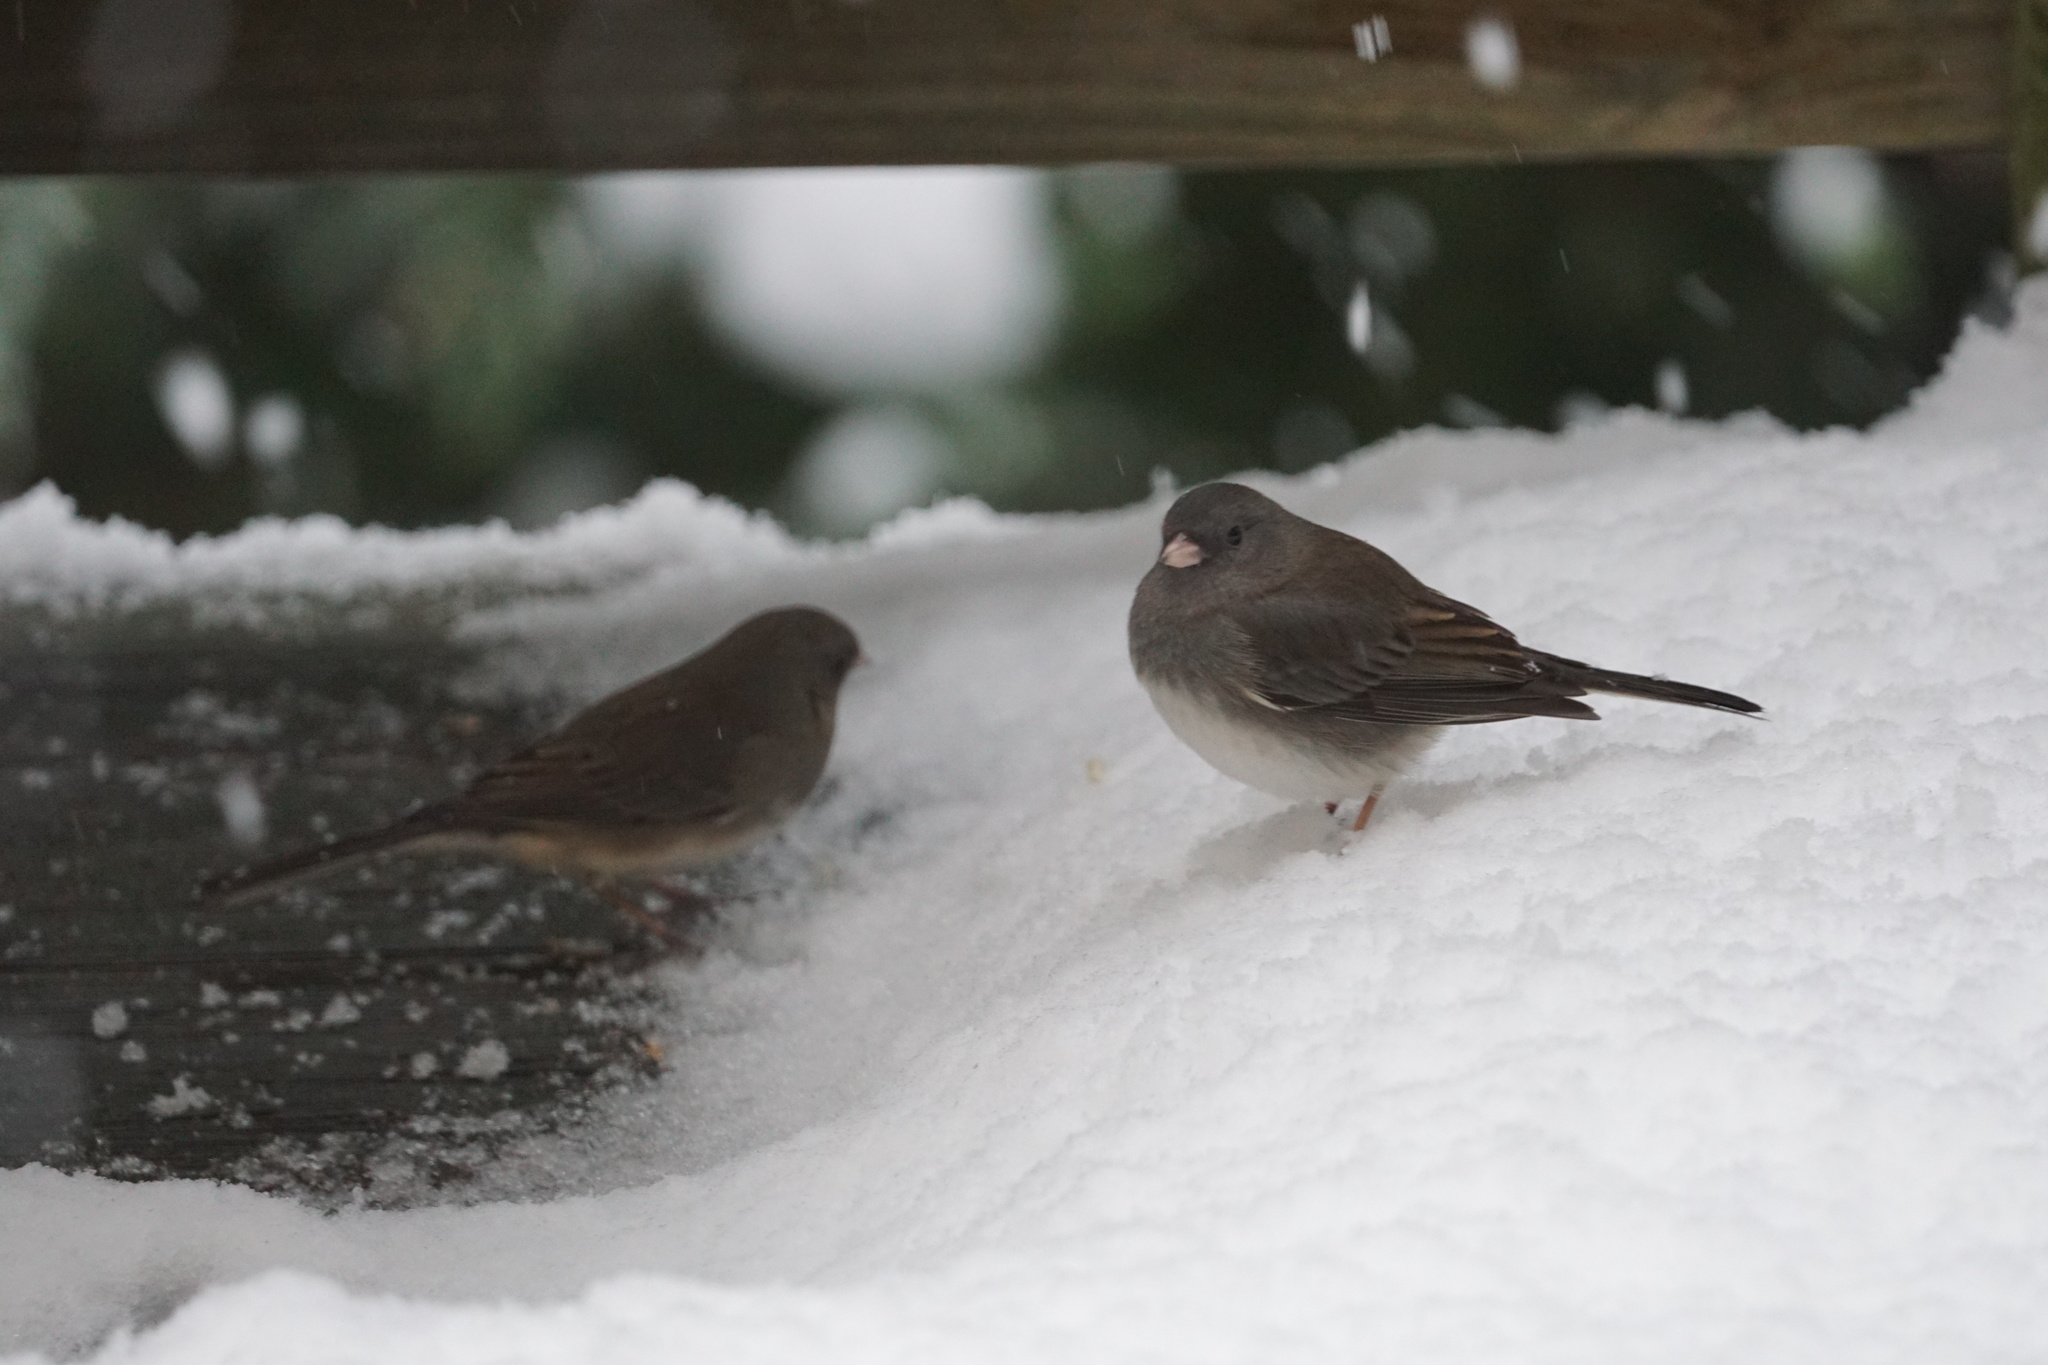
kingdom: Animalia
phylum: Chordata
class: Aves
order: Passeriformes
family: Passerellidae
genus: Junco
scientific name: Junco hyemalis
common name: Dark-eyed junco
